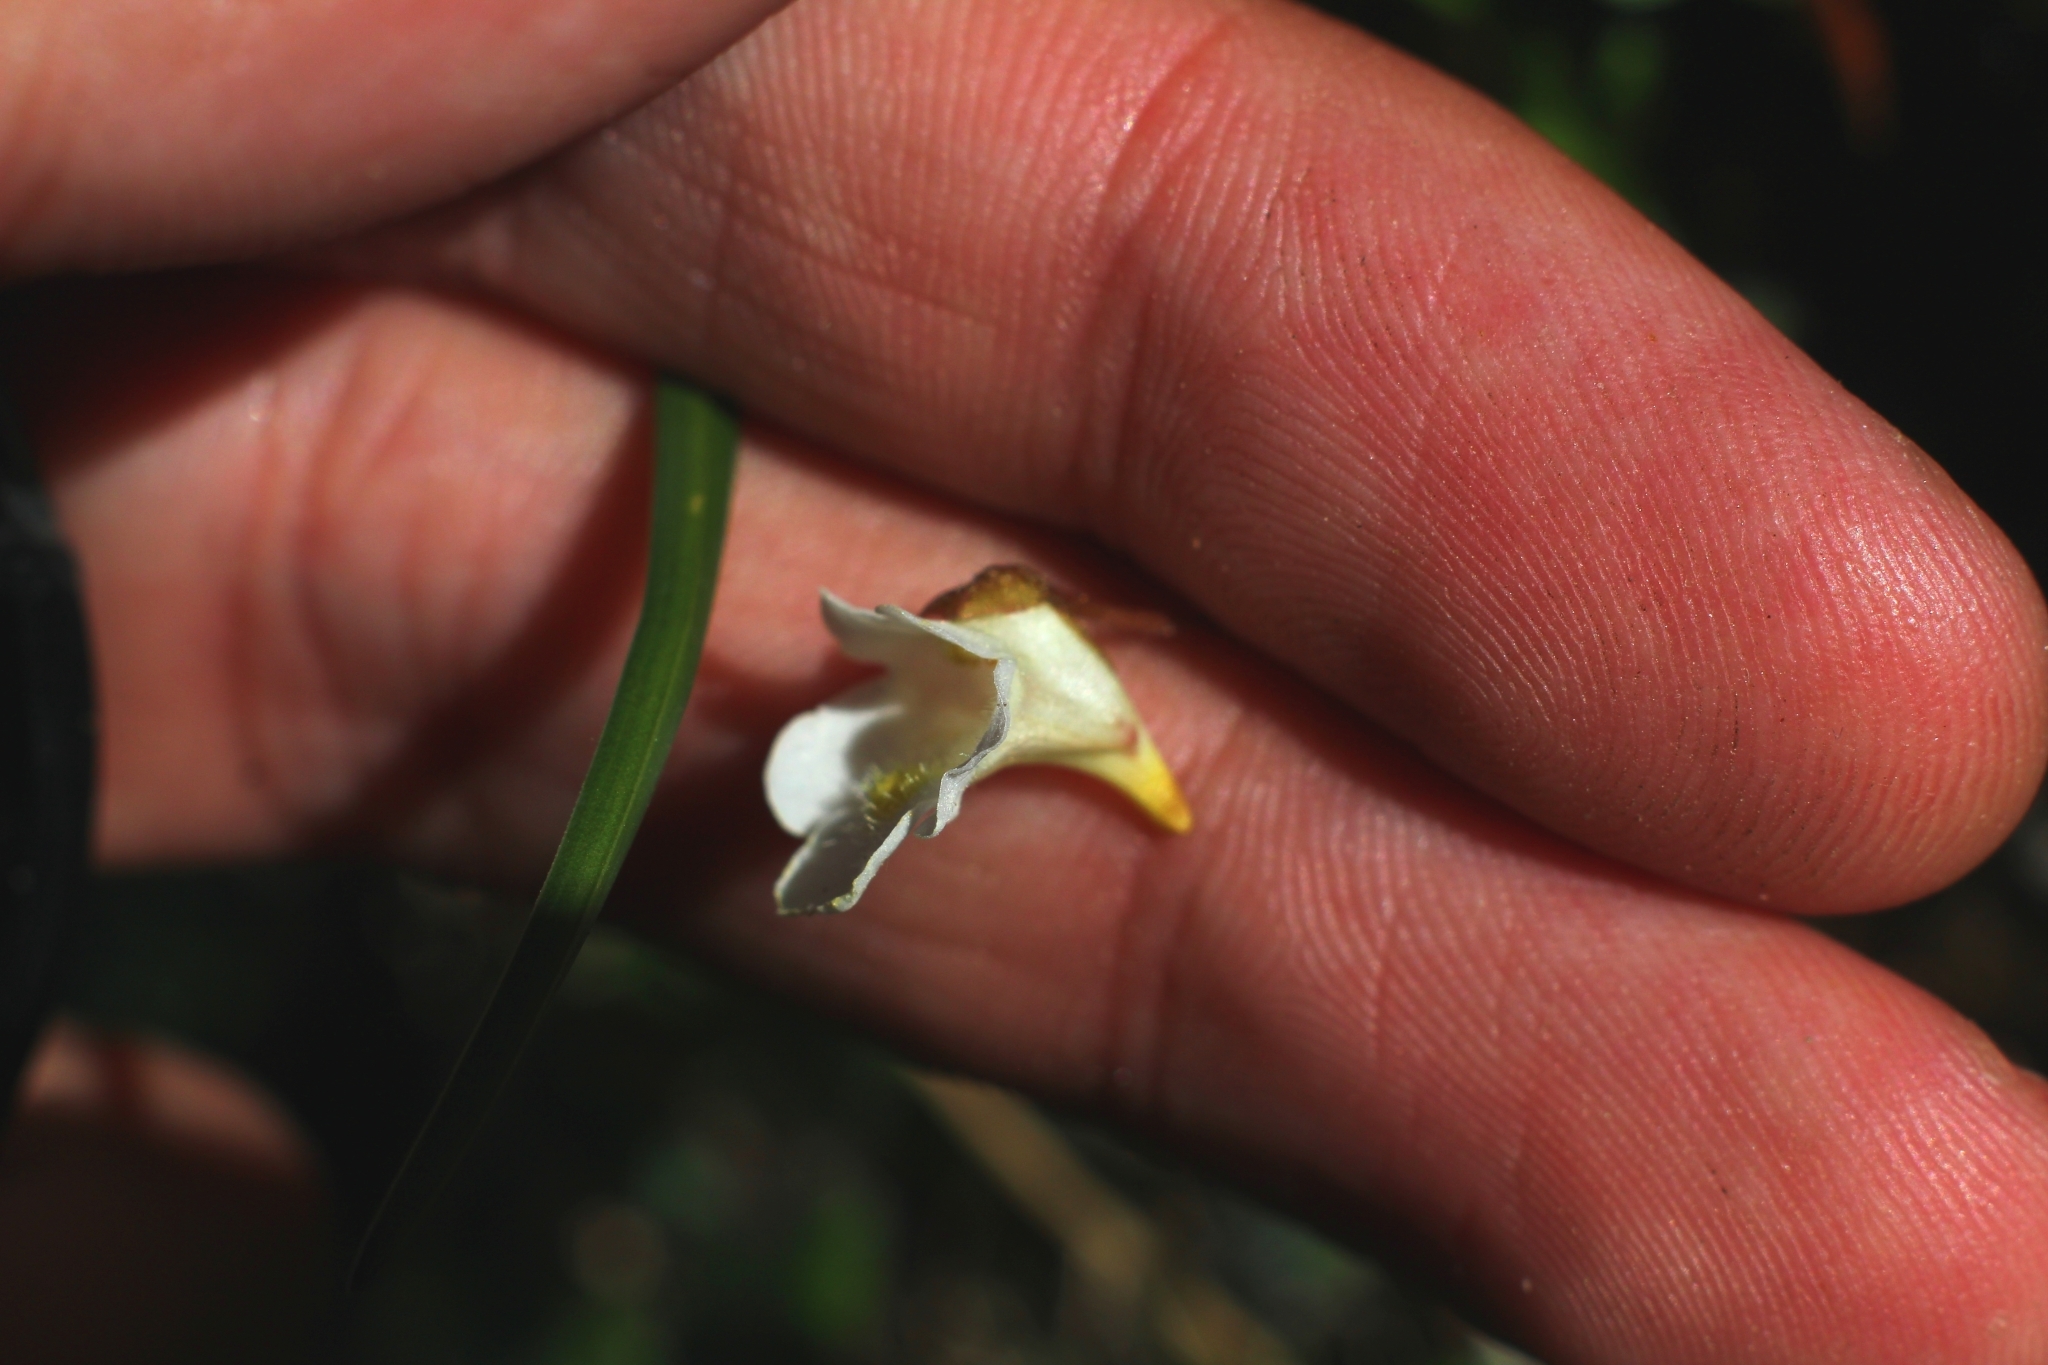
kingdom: Plantae
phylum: Tracheophyta
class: Magnoliopsida
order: Lamiales
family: Lentibulariaceae
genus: Pinguicula
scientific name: Pinguicula alpina
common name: Alpine butterwort
